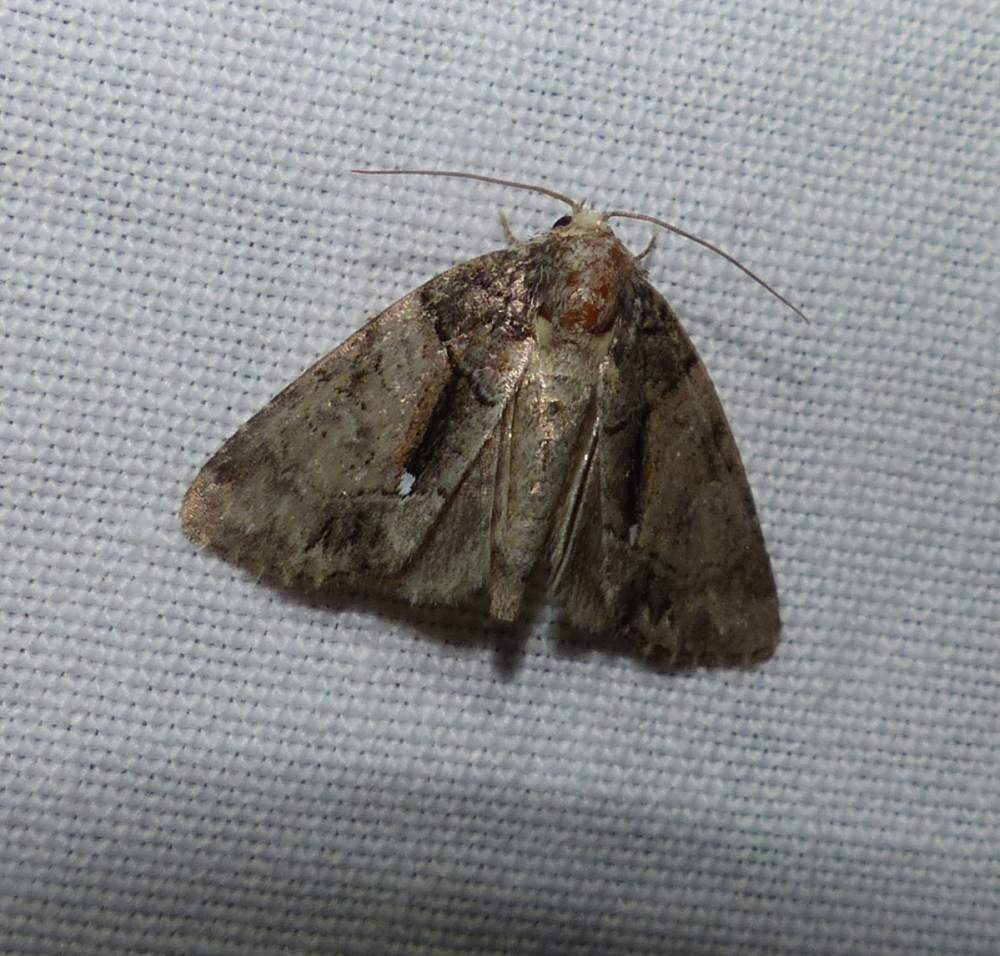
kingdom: Animalia
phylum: Arthropoda
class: Insecta
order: Lepidoptera
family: Noctuidae
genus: Chytonix
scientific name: Chytonix palliatricula
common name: Cloaked marvel
